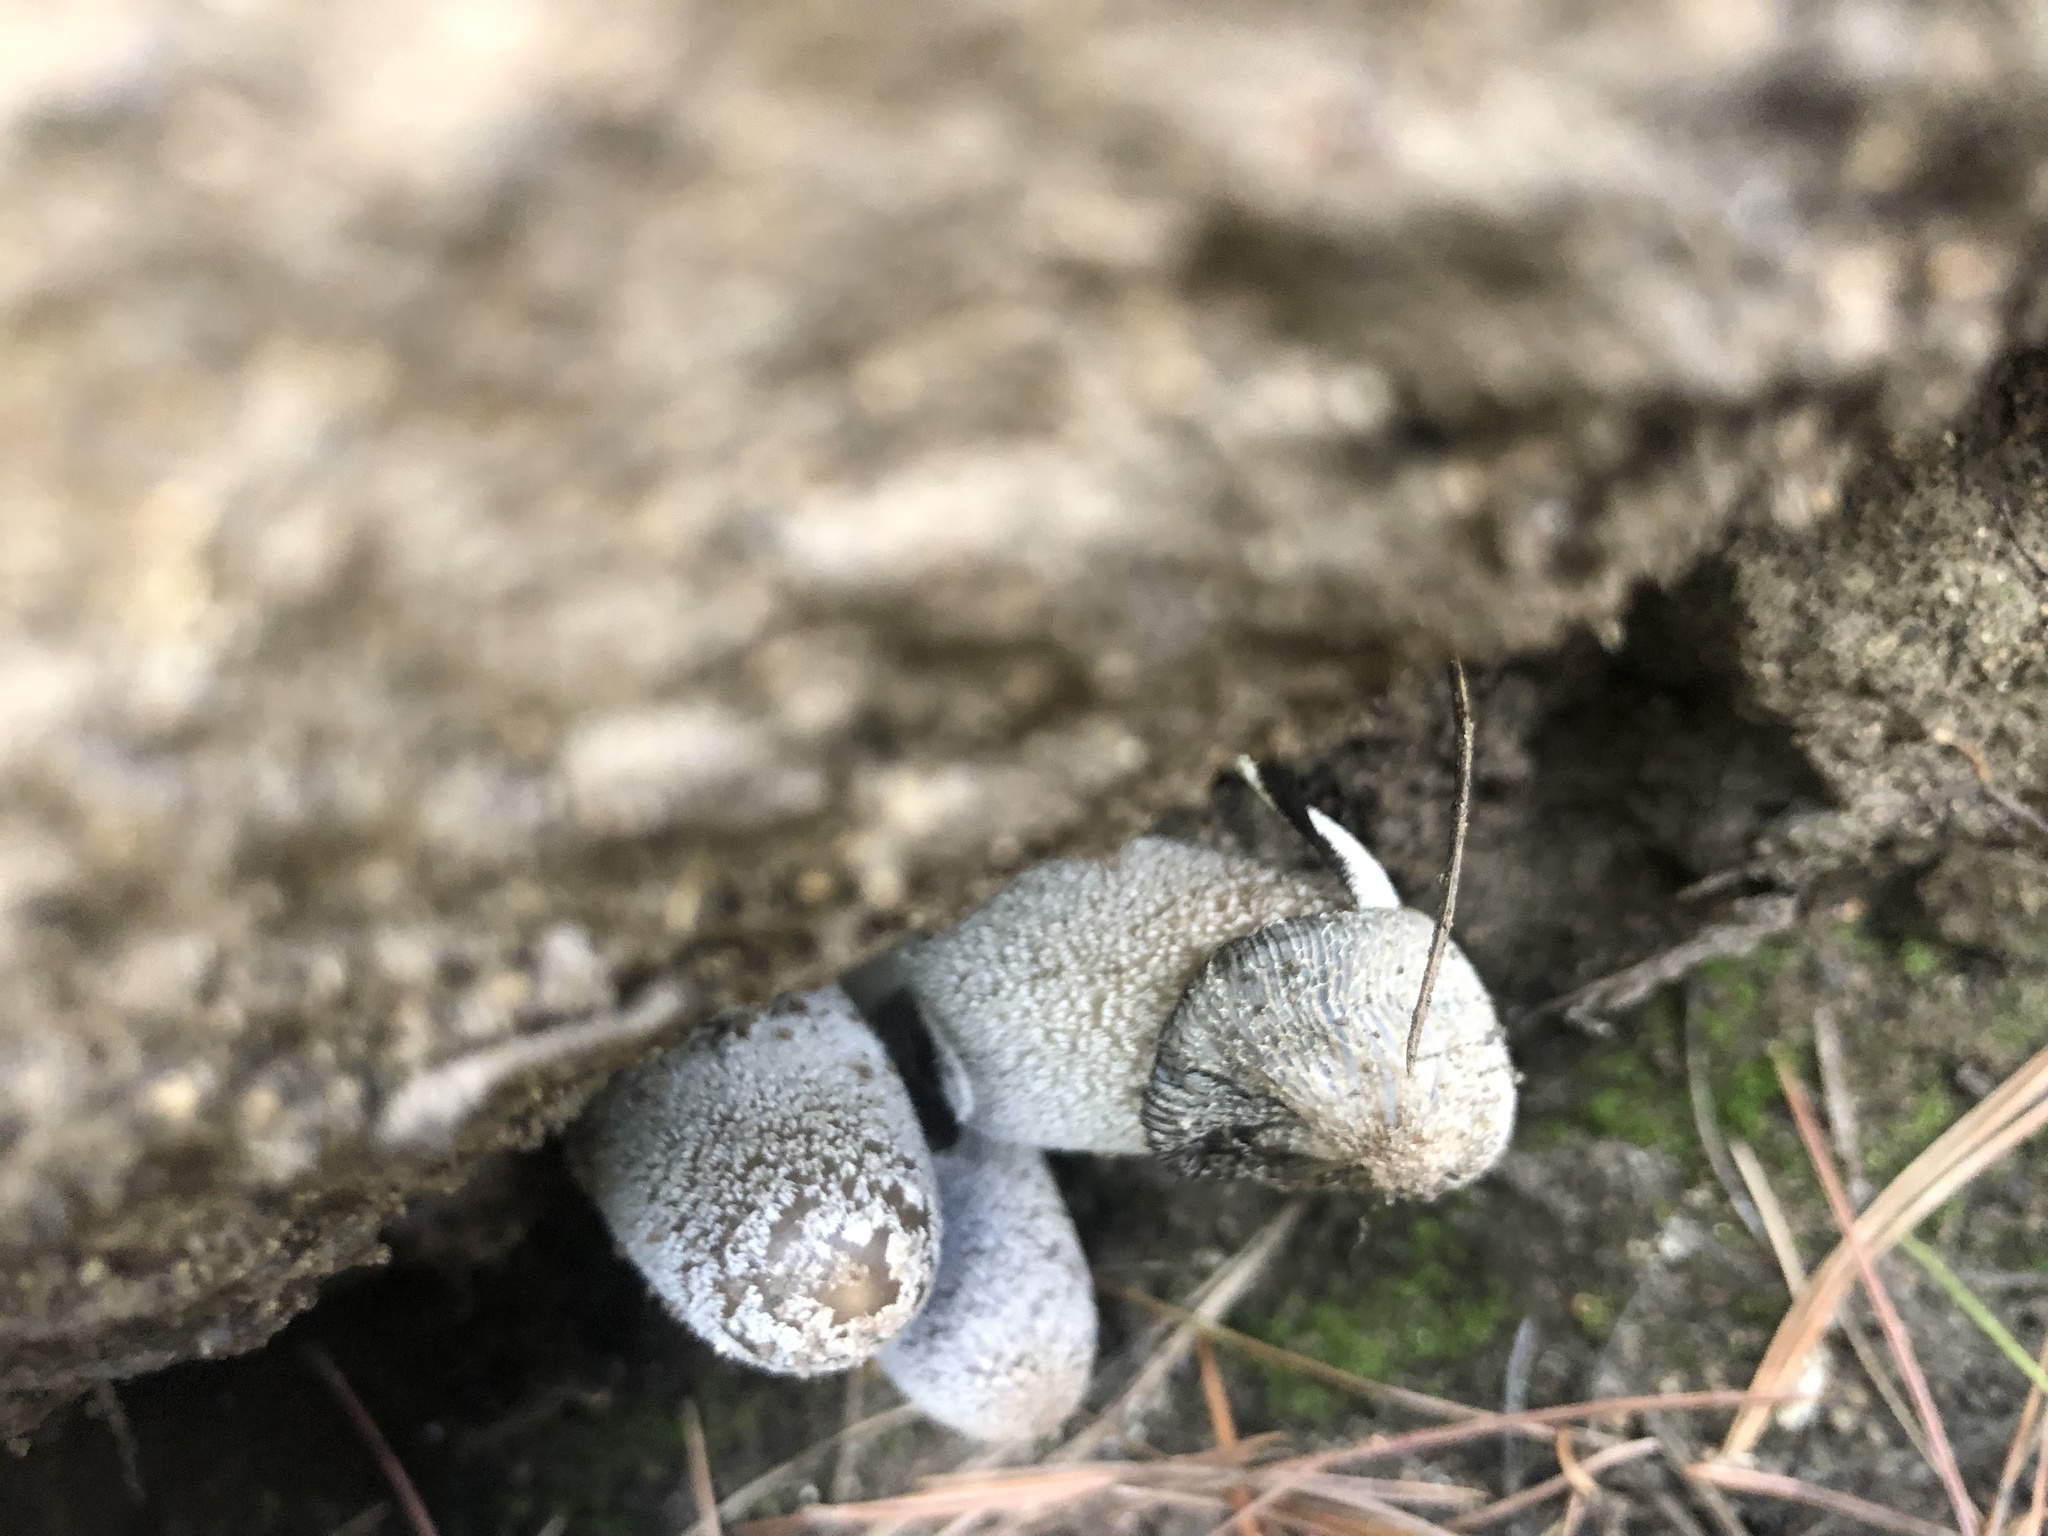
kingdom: Fungi
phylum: Basidiomycota
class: Agaricomycetes
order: Agaricales
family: Psathyrellaceae
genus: Coprinopsis
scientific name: Coprinopsis jonesii
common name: Bonfire inkcap
